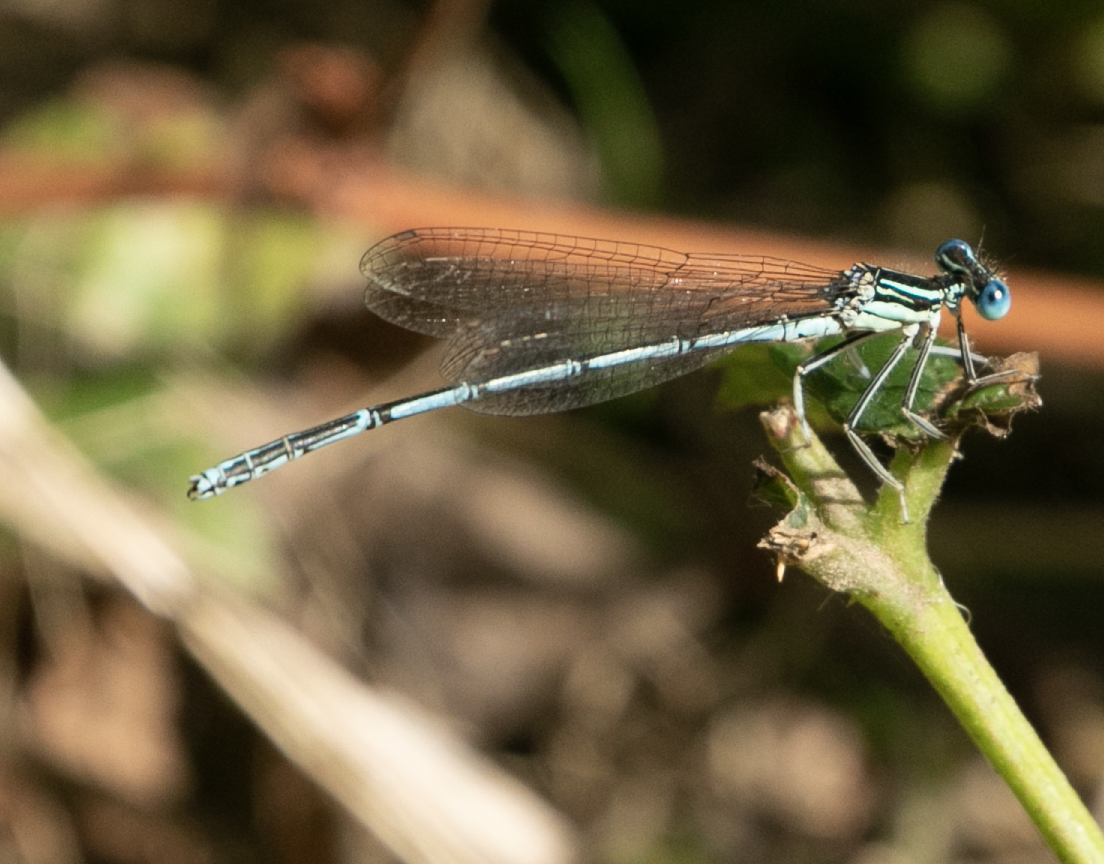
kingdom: Animalia
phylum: Arthropoda
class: Insecta
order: Odonata
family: Platycnemididae
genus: Platycnemis
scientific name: Platycnemis pennipes
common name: White-legged damselfly
